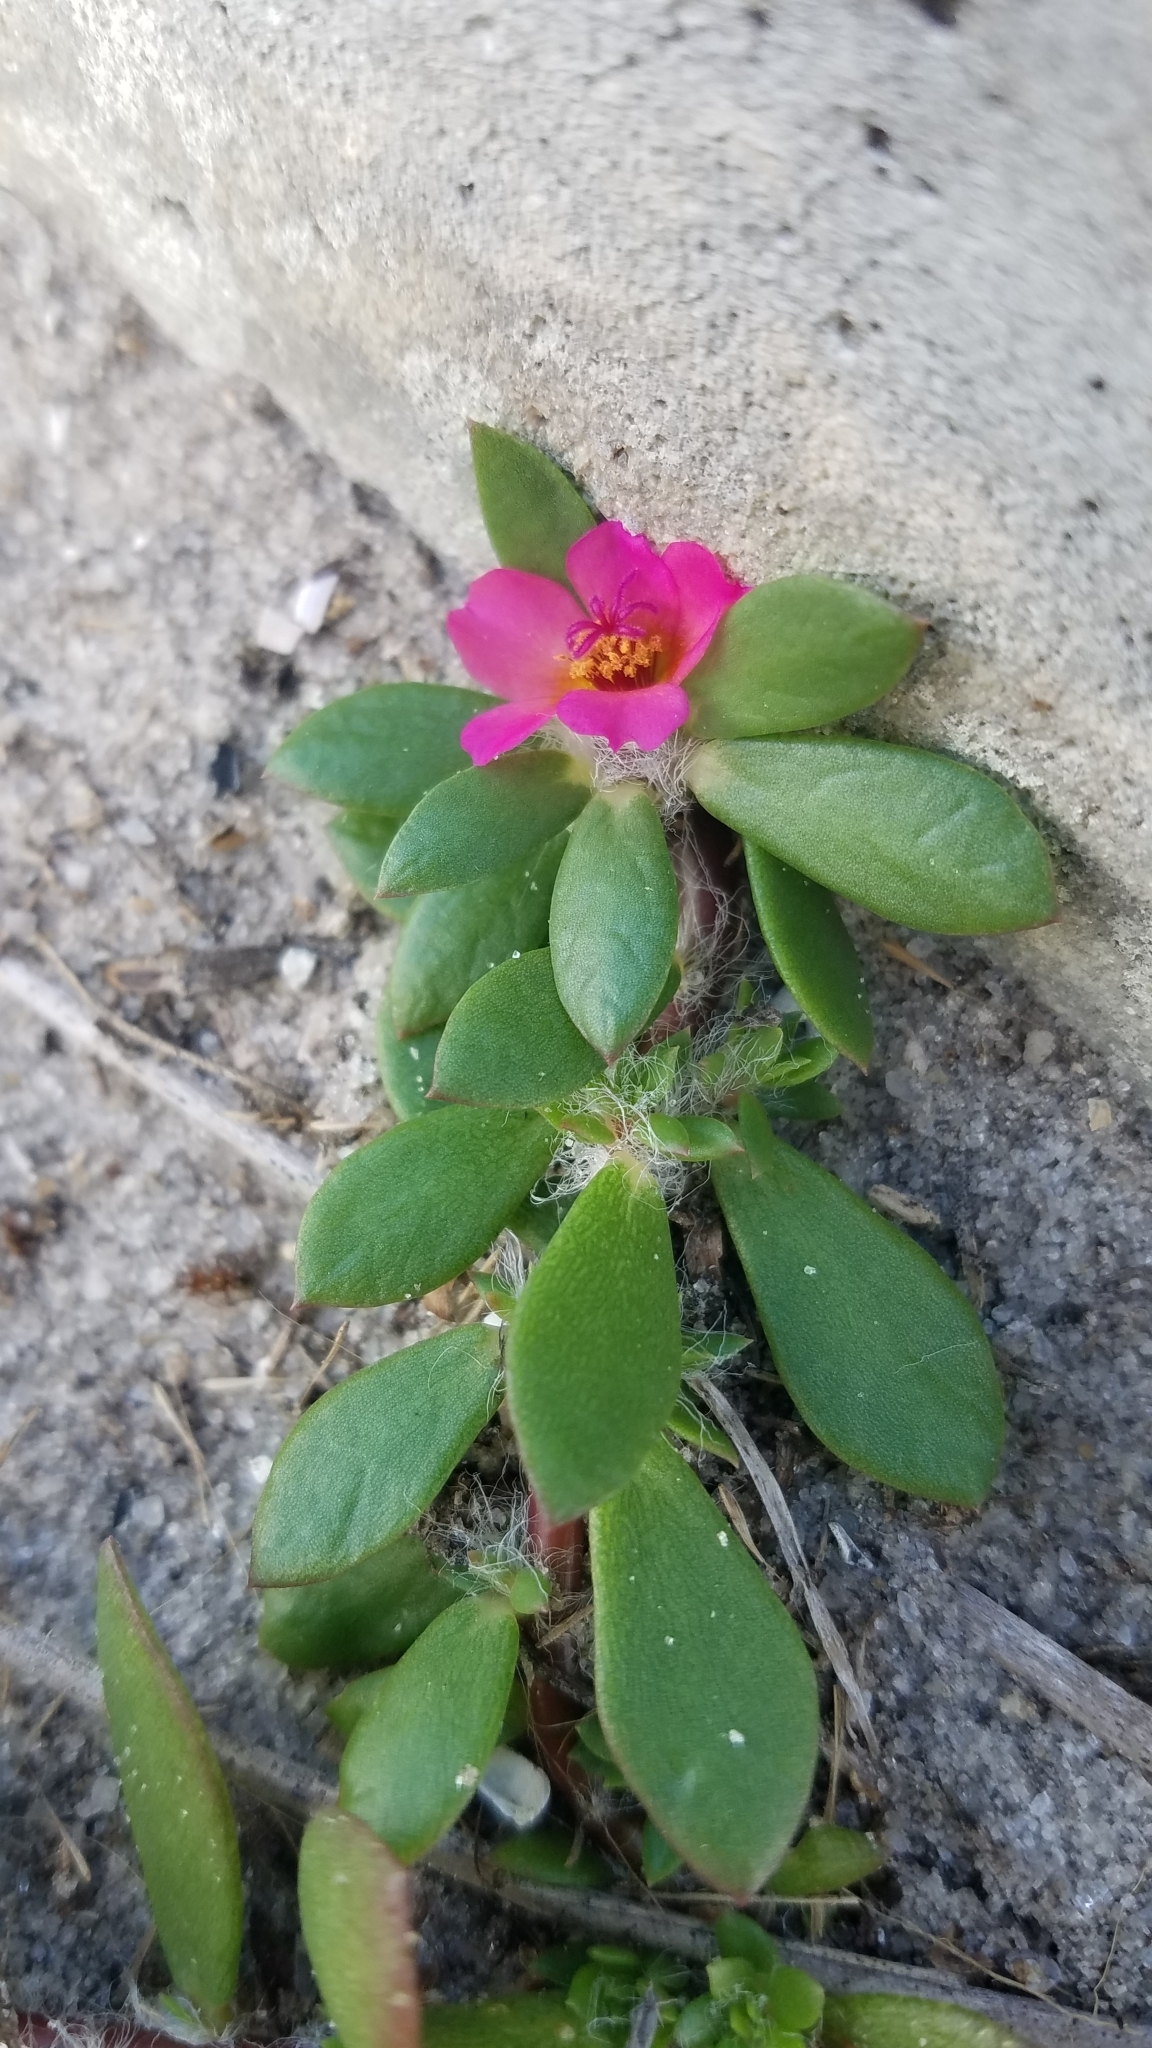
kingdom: Plantae
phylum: Tracheophyta
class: Magnoliopsida
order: Caryophyllales
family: Portulacaceae
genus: Portulaca
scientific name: Portulaca amilis
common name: Paraguayan purslane
